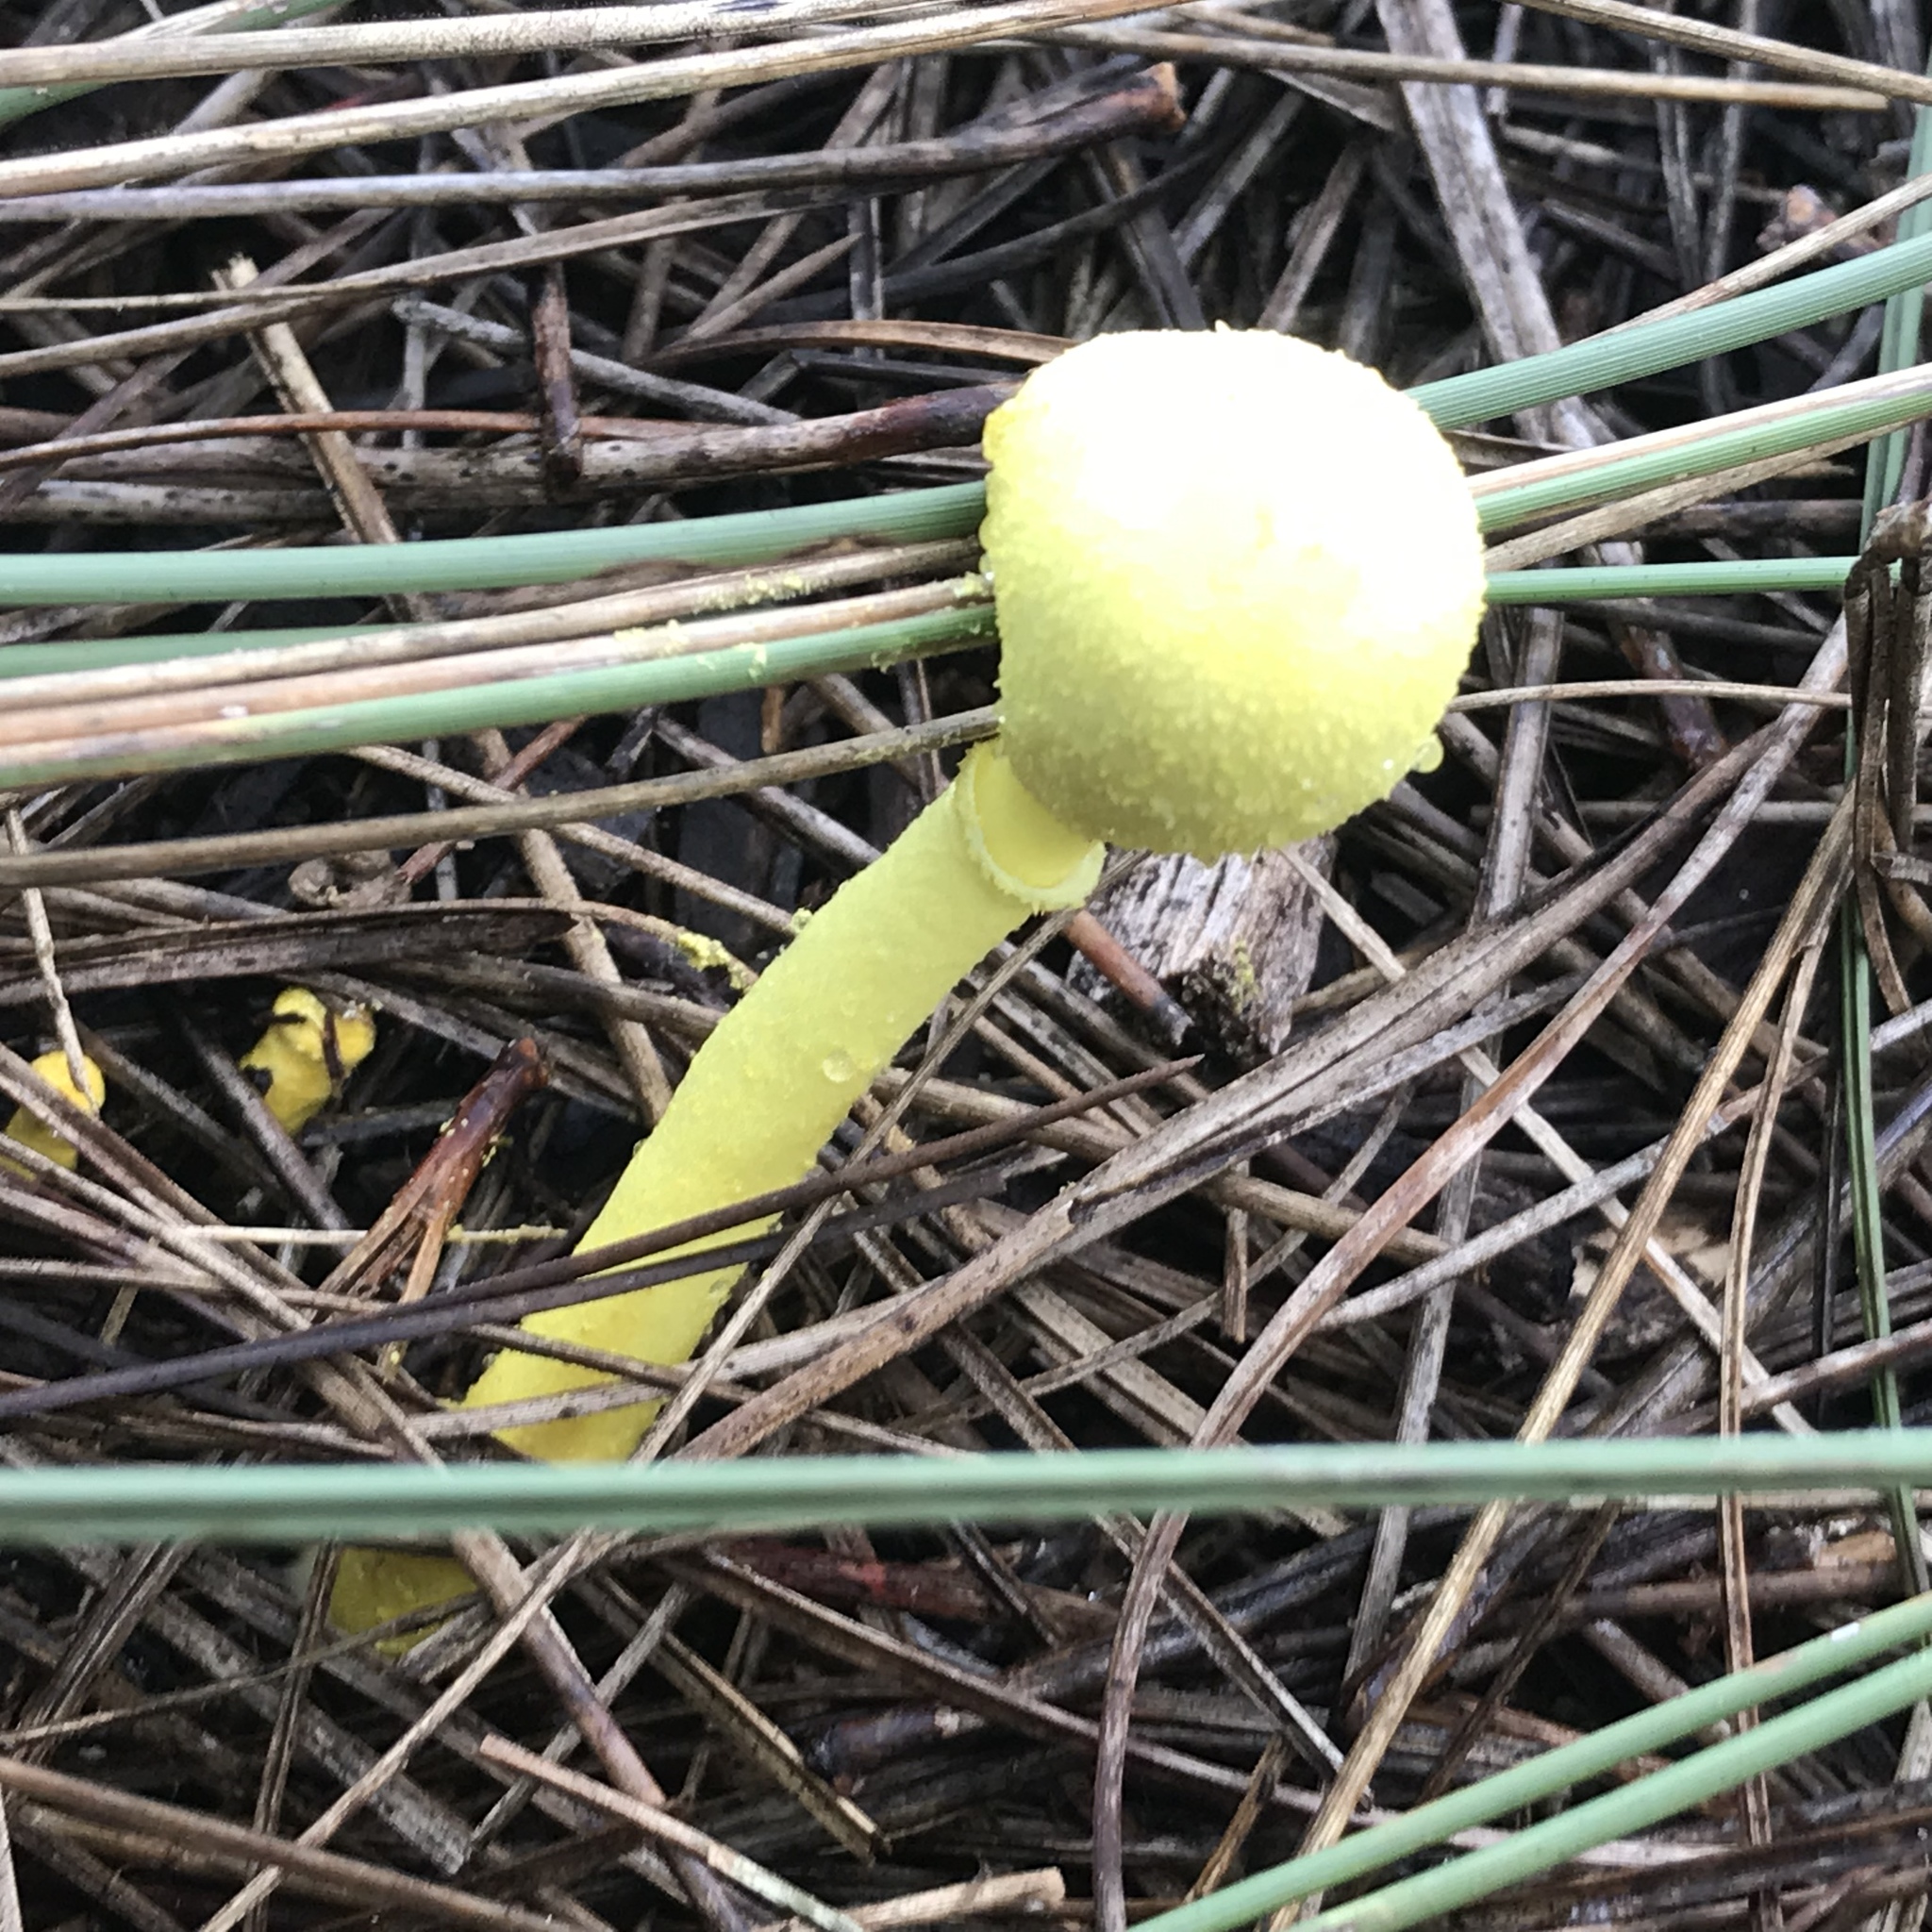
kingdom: Fungi
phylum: Basidiomycota
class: Agaricomycetes
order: Agaricales
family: Agaricaceae
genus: Leucocoprinus
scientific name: Leucocoprinus birnbaumii
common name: Plantpot dapperling
